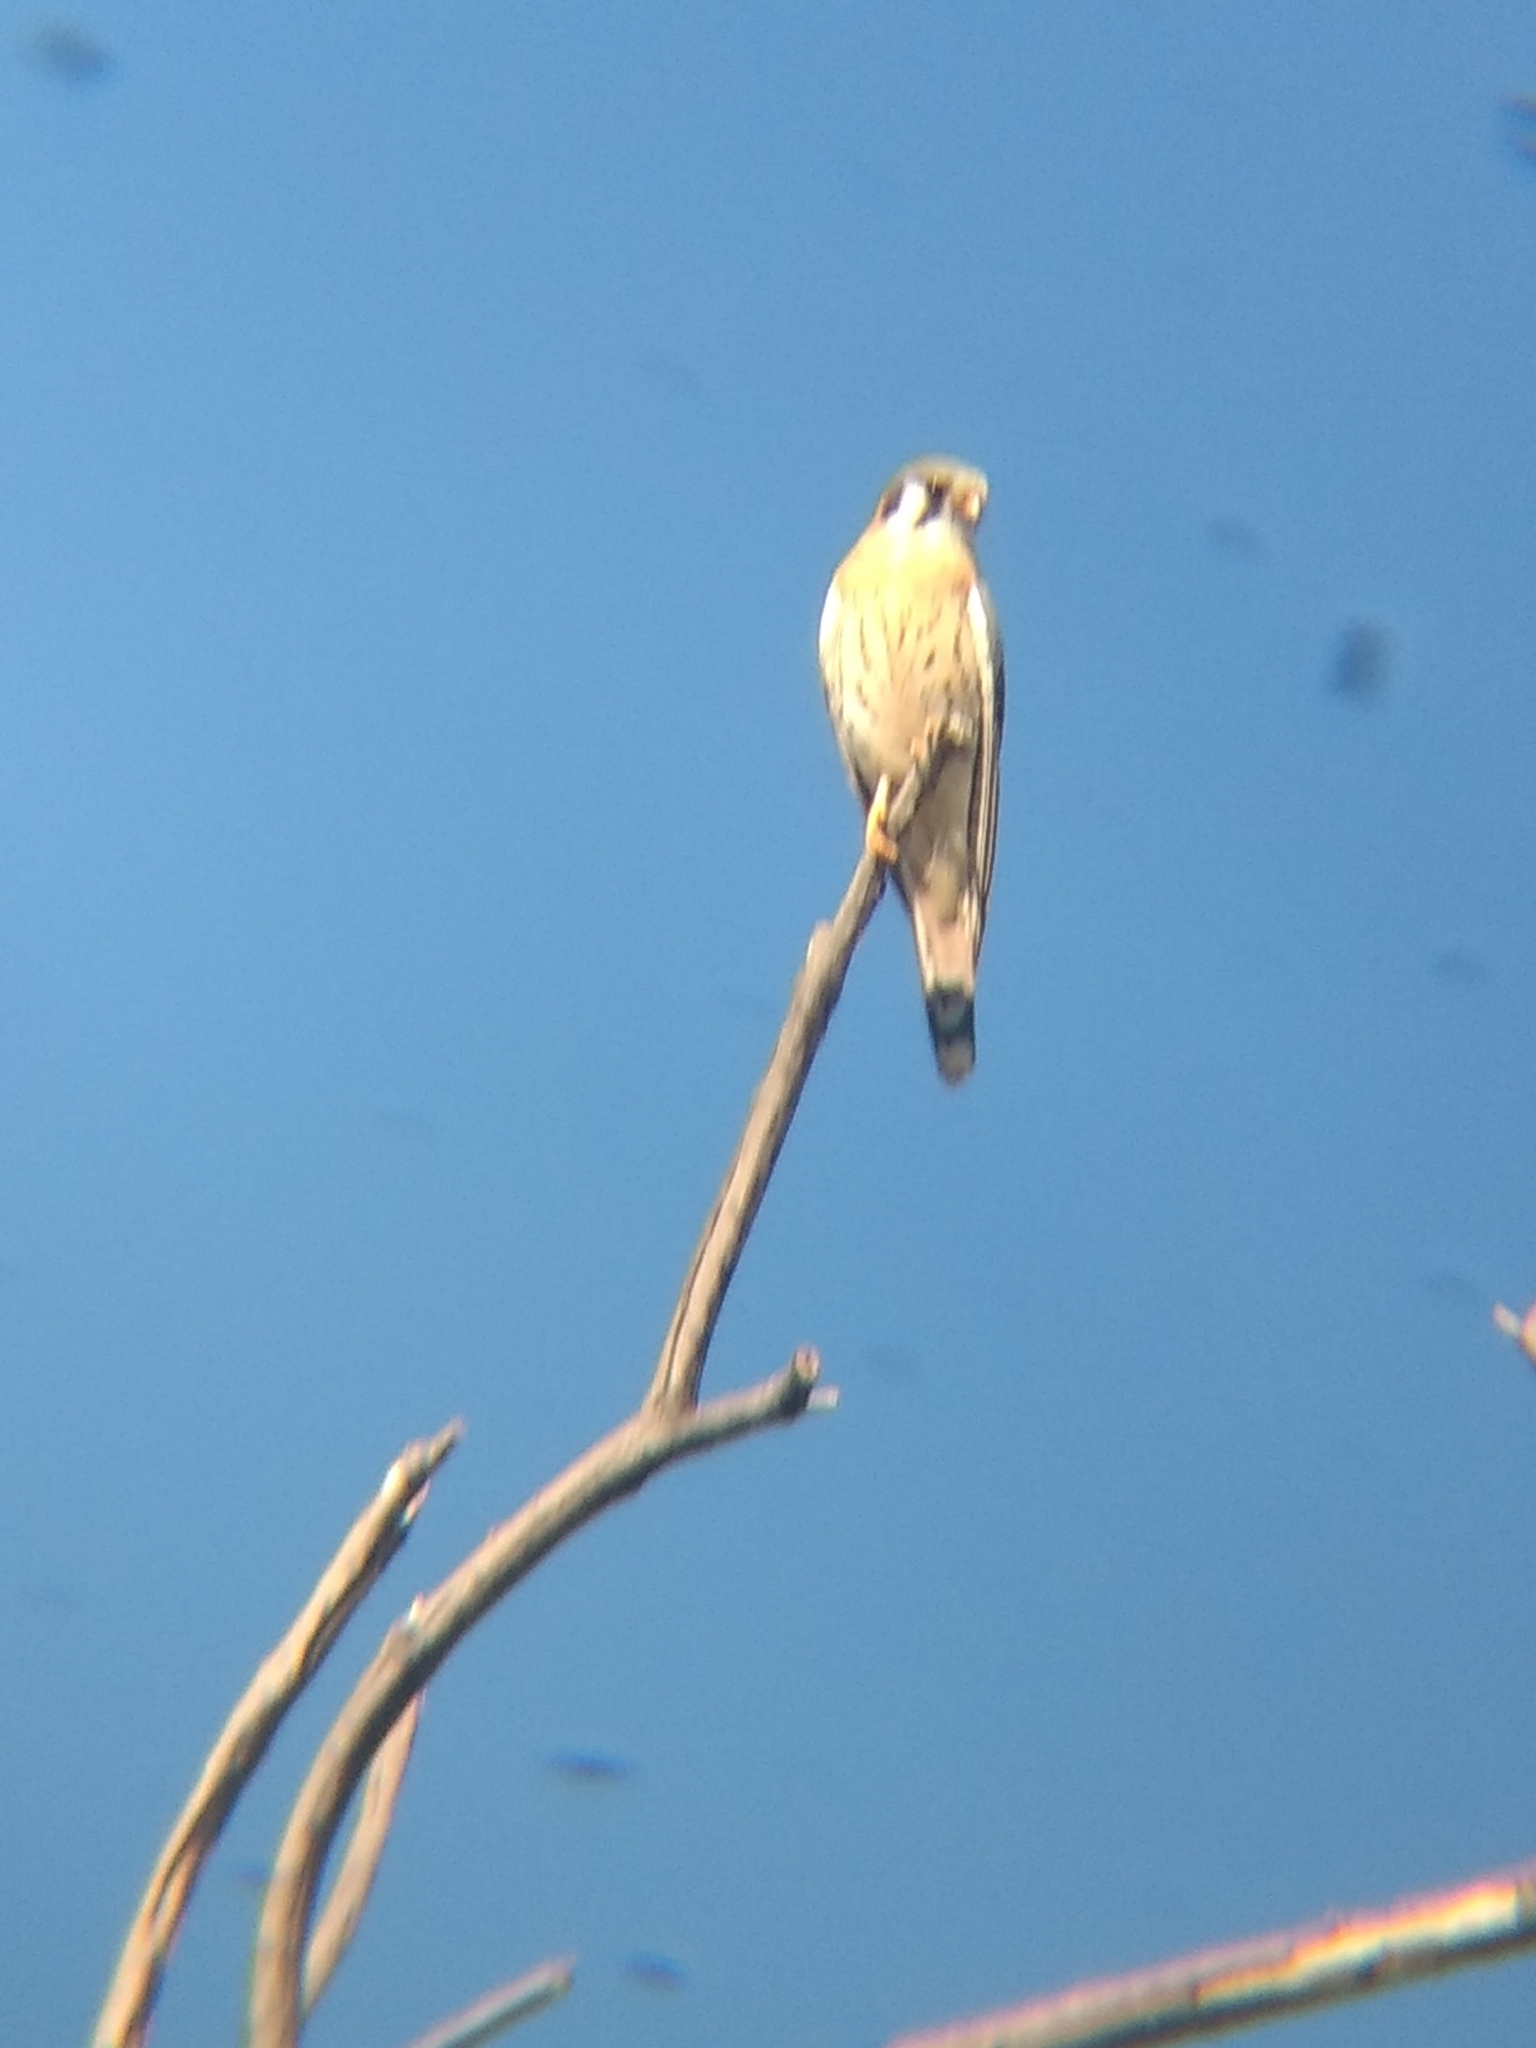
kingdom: Animalia
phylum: Chordata
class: Aves
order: Falconiformes
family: Falconidae
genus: Falco
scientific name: Falco sparverius
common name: American kestrel
